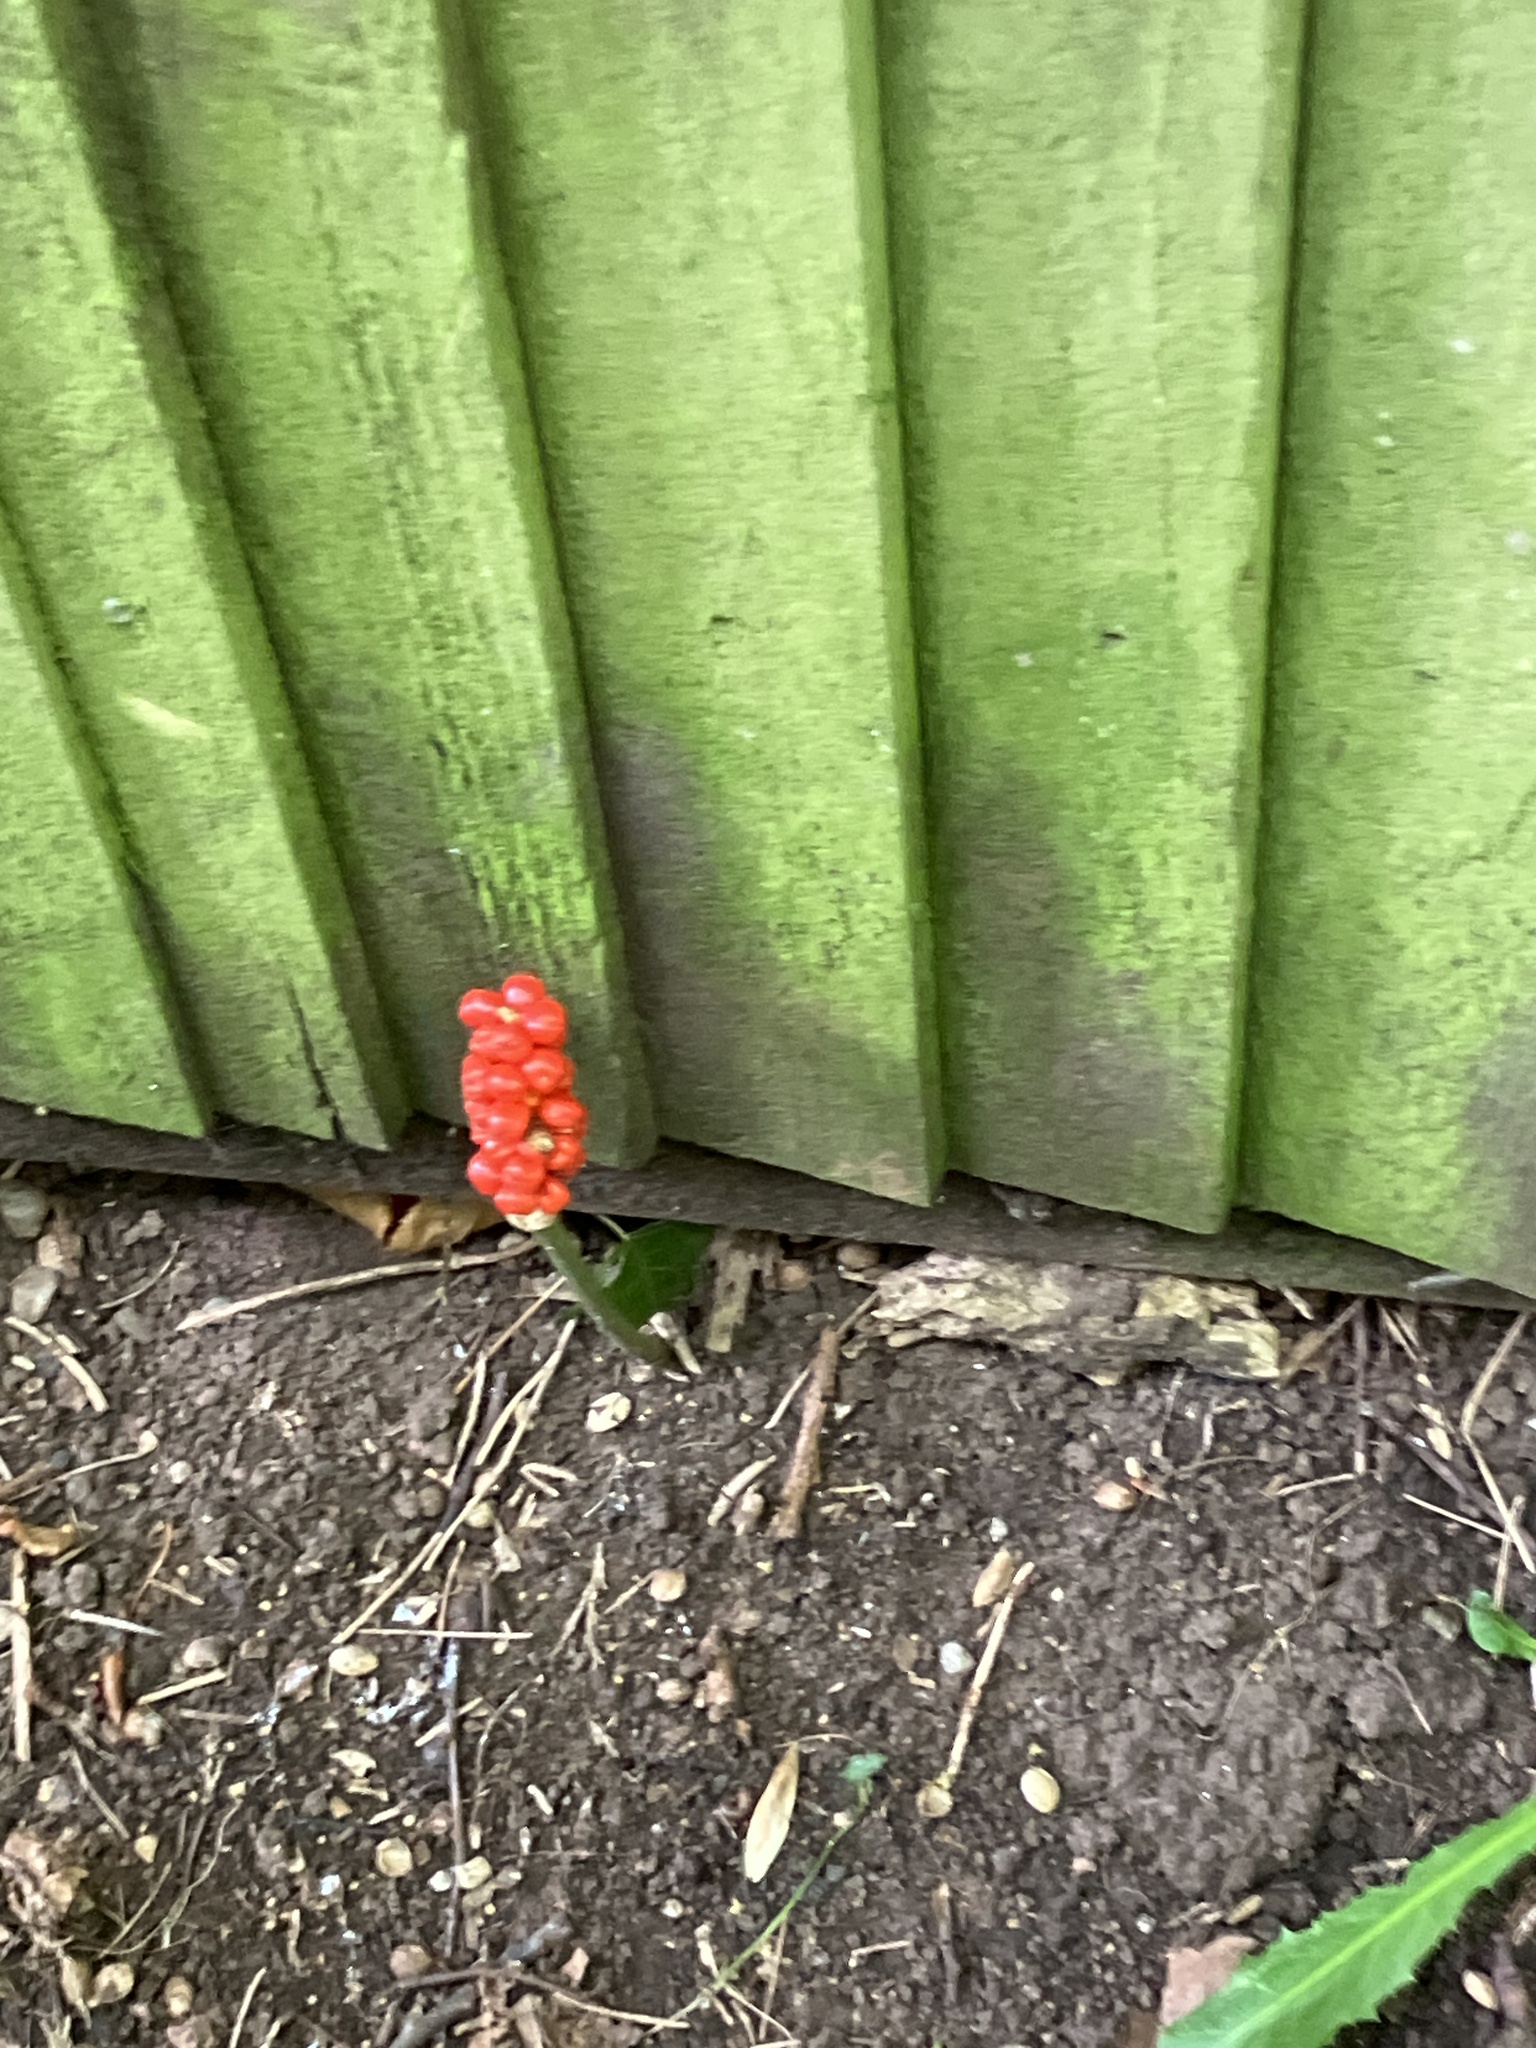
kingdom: Plantae
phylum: Tracheophyta
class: Liliopsida
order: Alismatales
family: Araceae
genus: Arum
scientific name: Arum maculatum
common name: Lords-and-ladies
